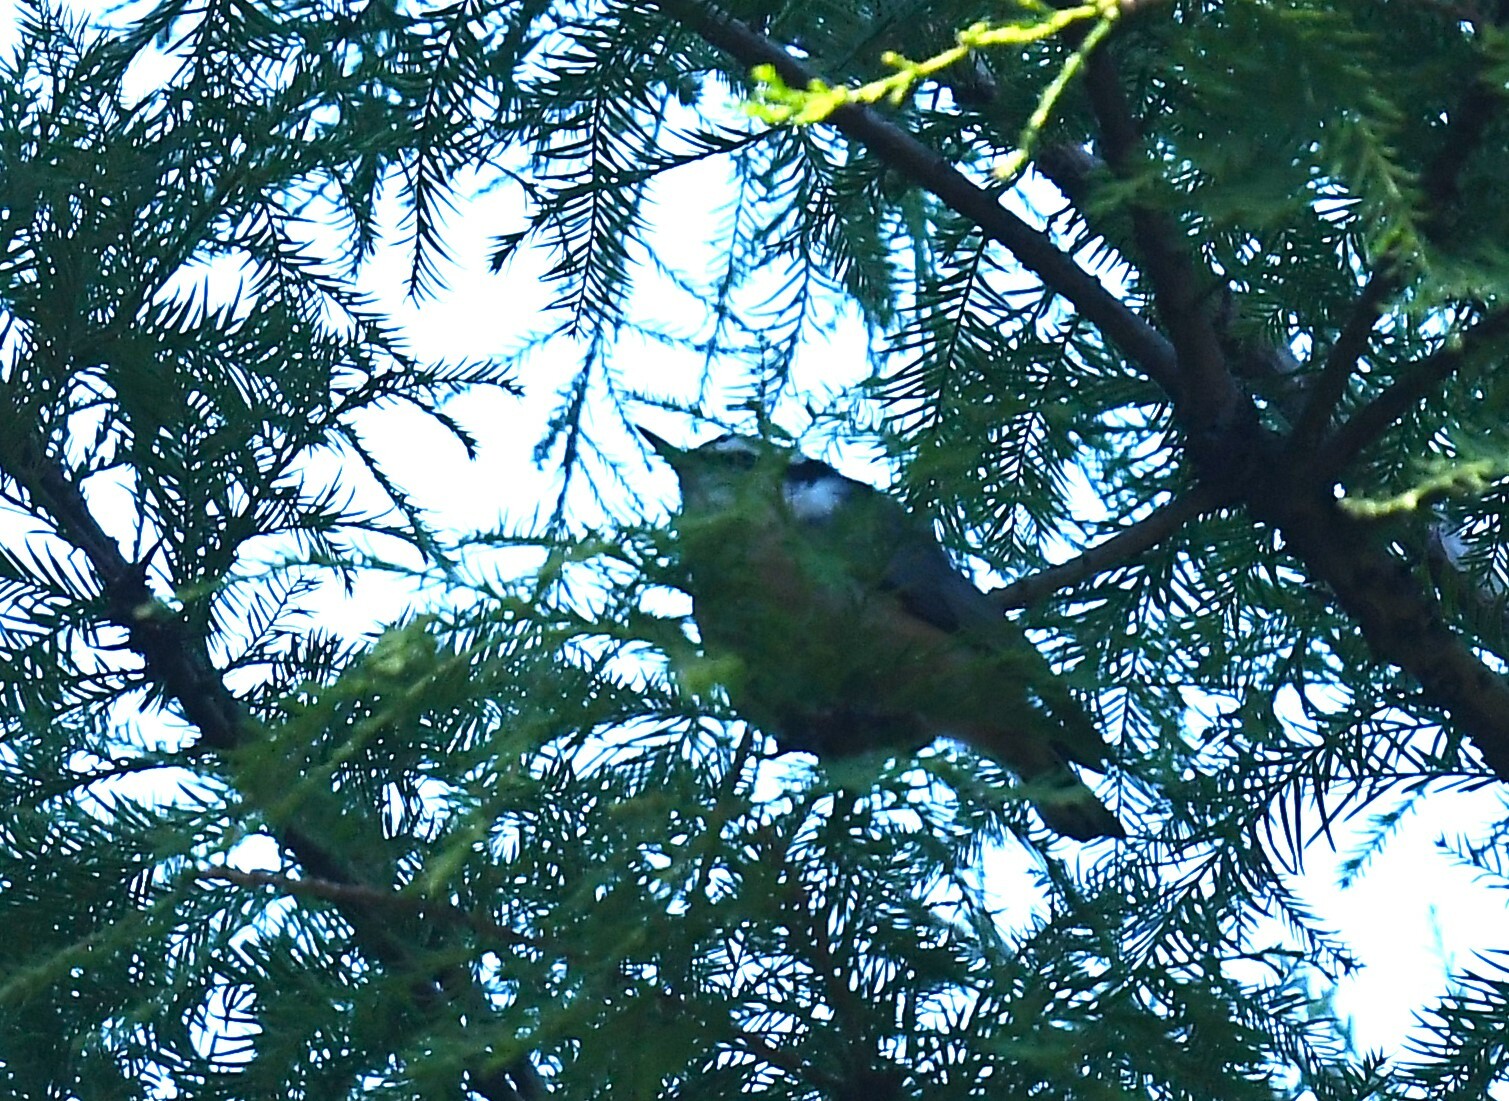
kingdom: Animalia
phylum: Chordata
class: Aves
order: Passeriformes
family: Sittidae
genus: Sitta
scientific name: Sitta canadensis
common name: Red-breasted nuthatch
